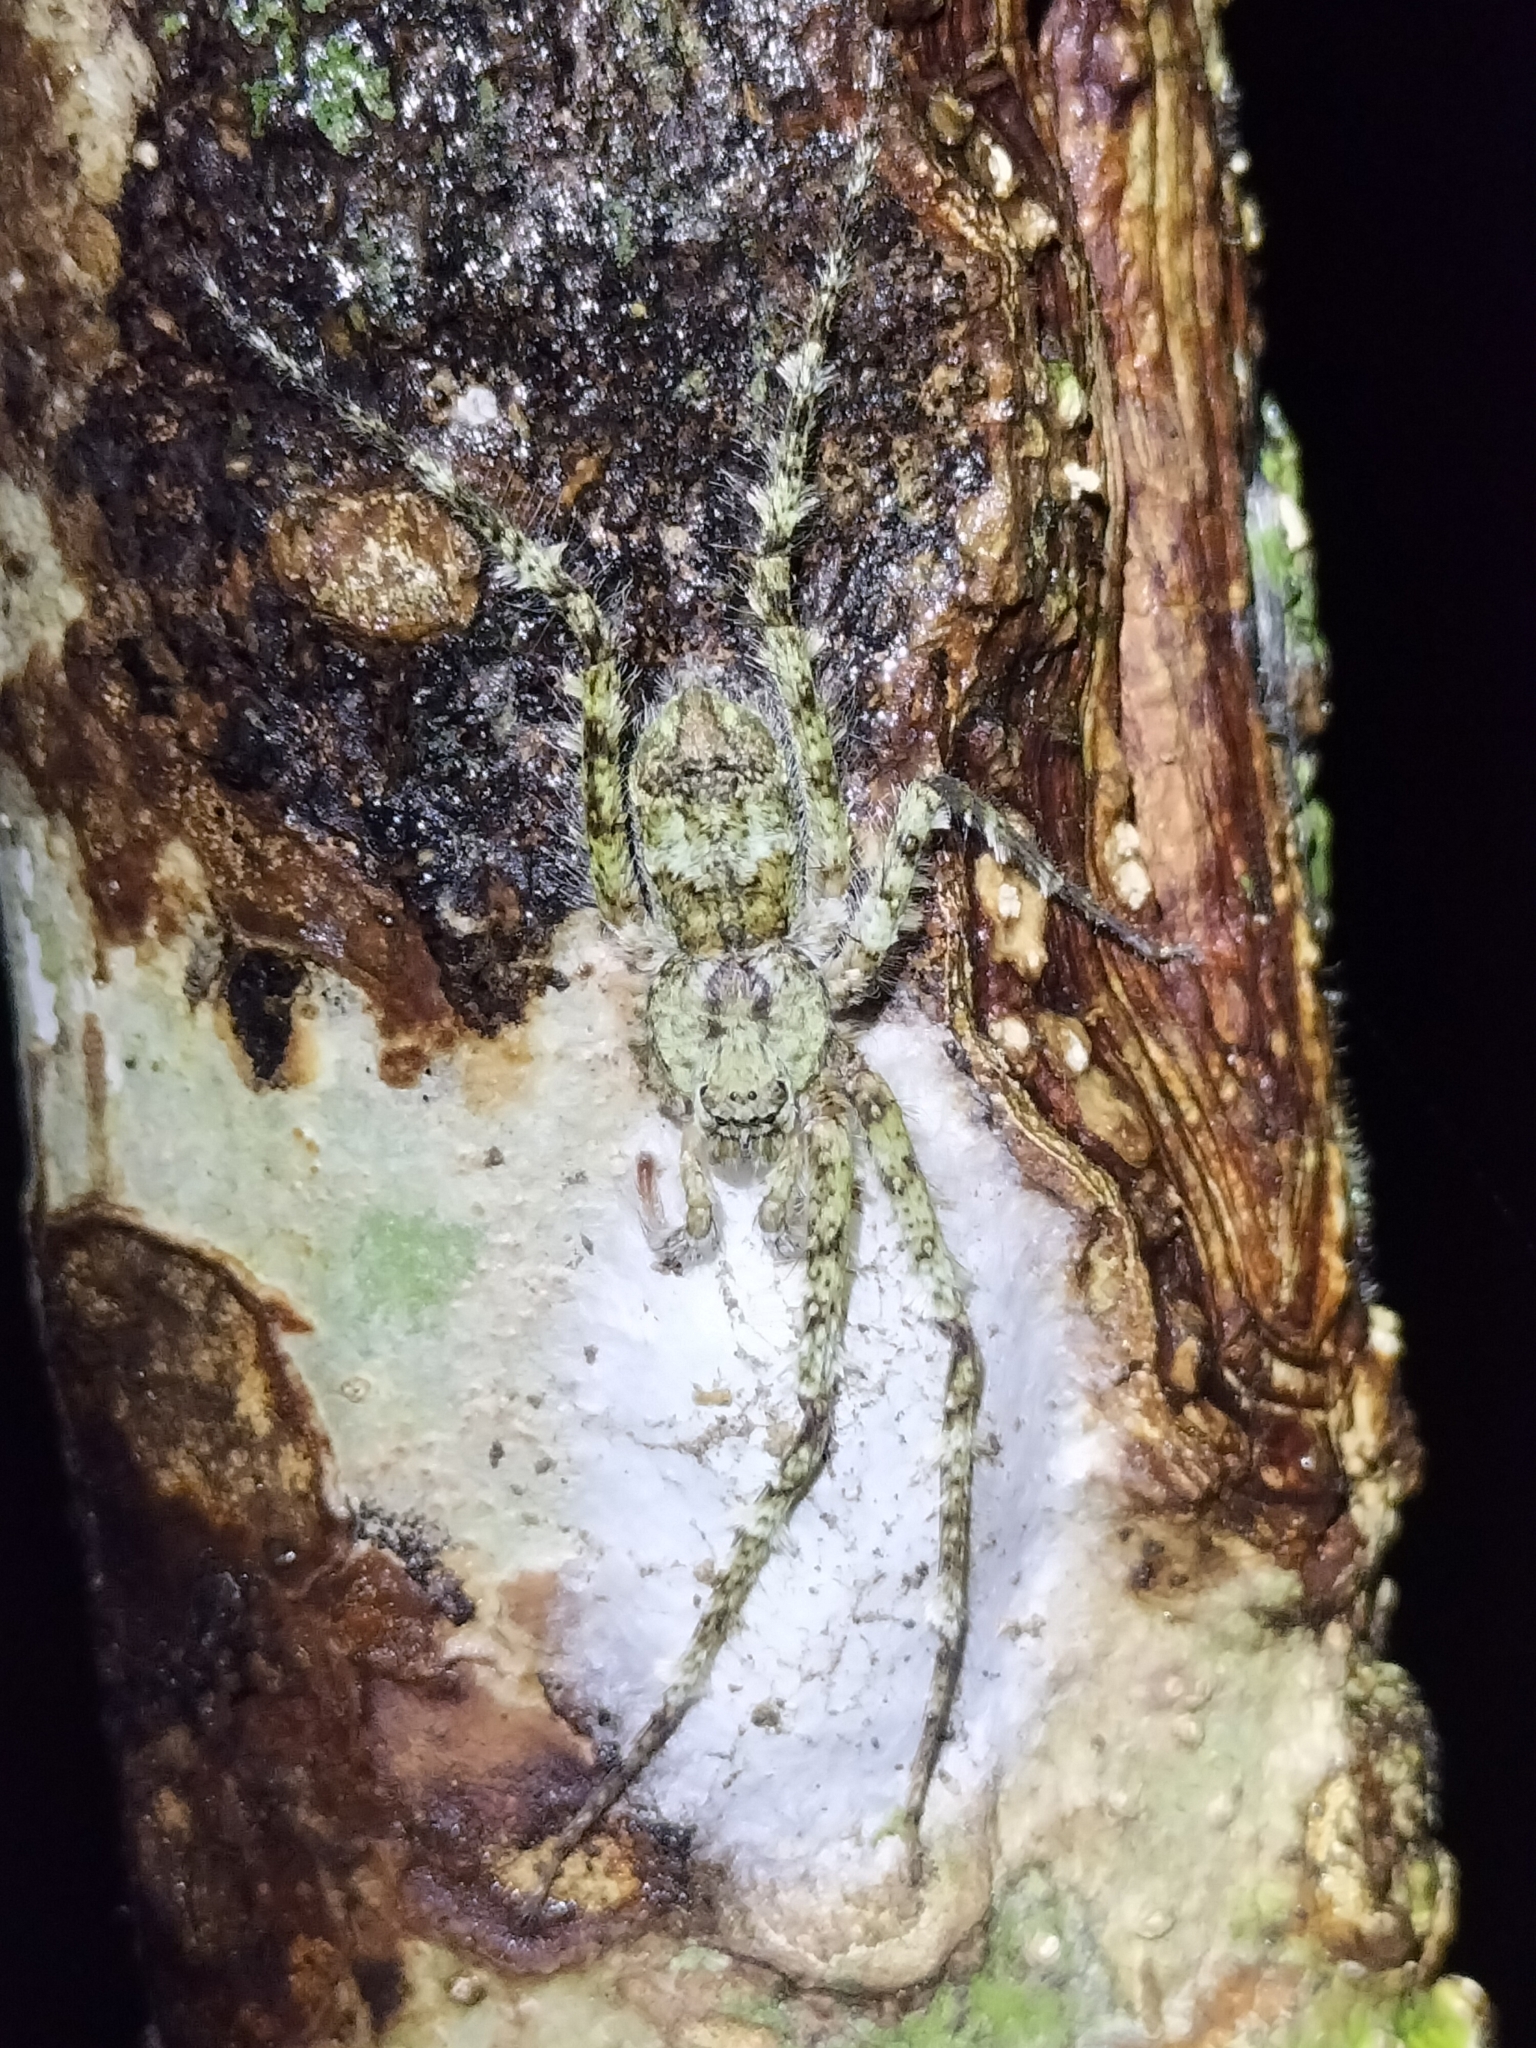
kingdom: Animalia
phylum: Arthropoda
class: Arachnida
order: Araneae
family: Sparassidae
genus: Pandercetes
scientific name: Pandercetes gracilis
